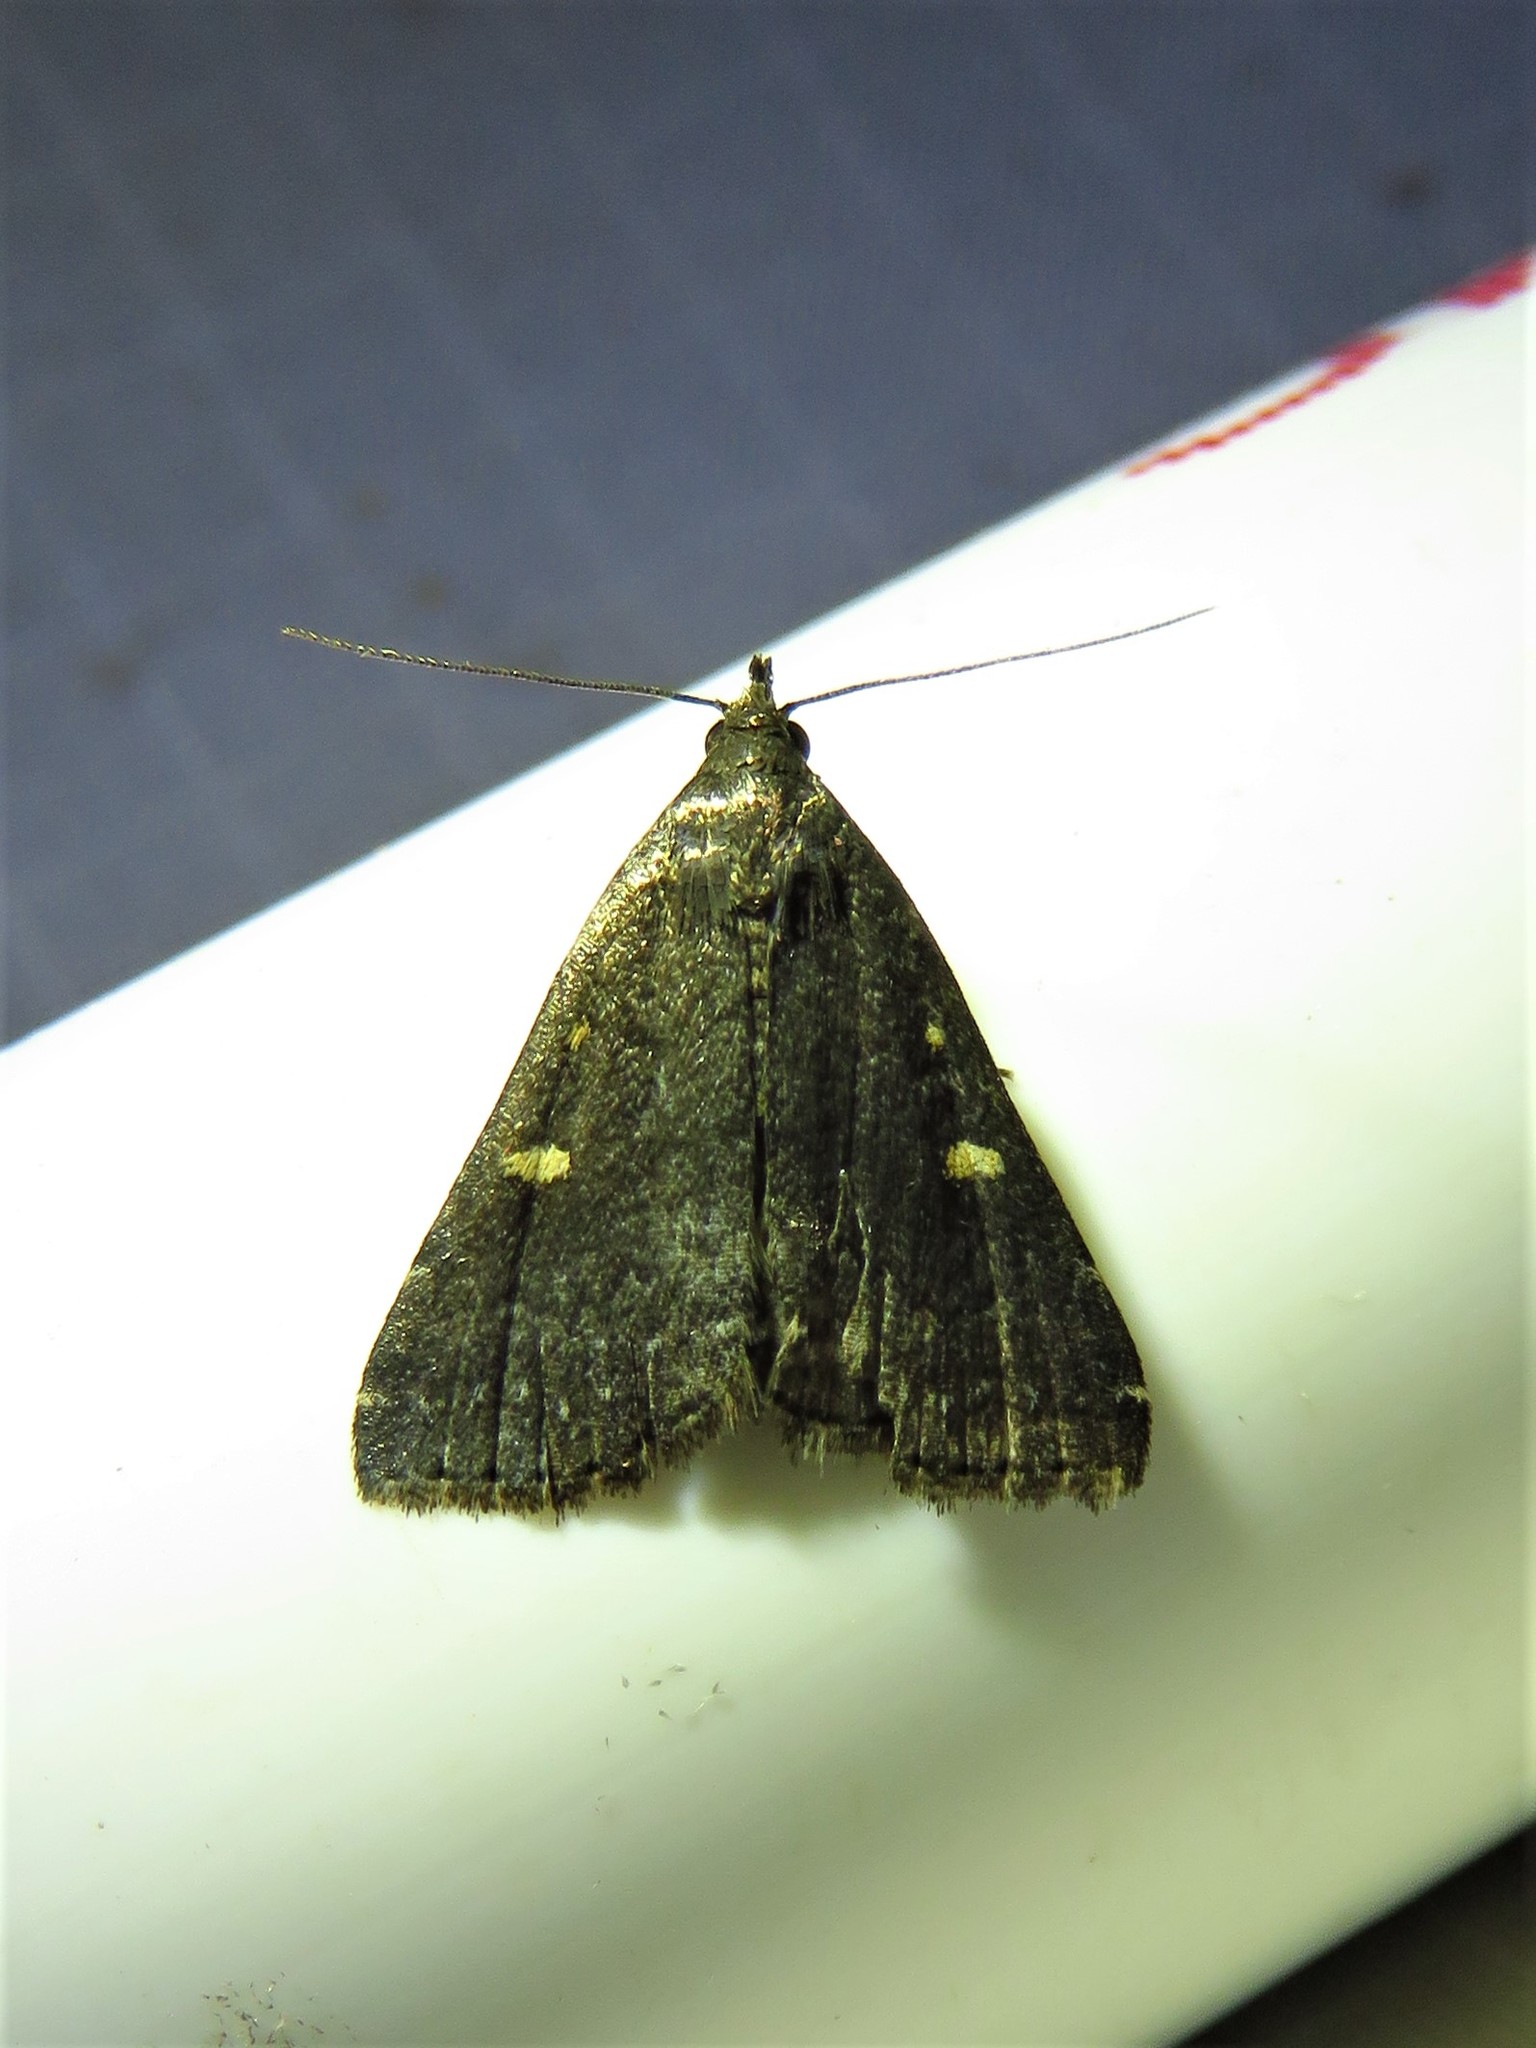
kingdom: Animalia
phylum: Arthropoda
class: Insecta
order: Lepidoptera
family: Erebidae
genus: Tetanolita
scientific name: Tetanolita mynesalis
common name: Smoky tetanolita moth
